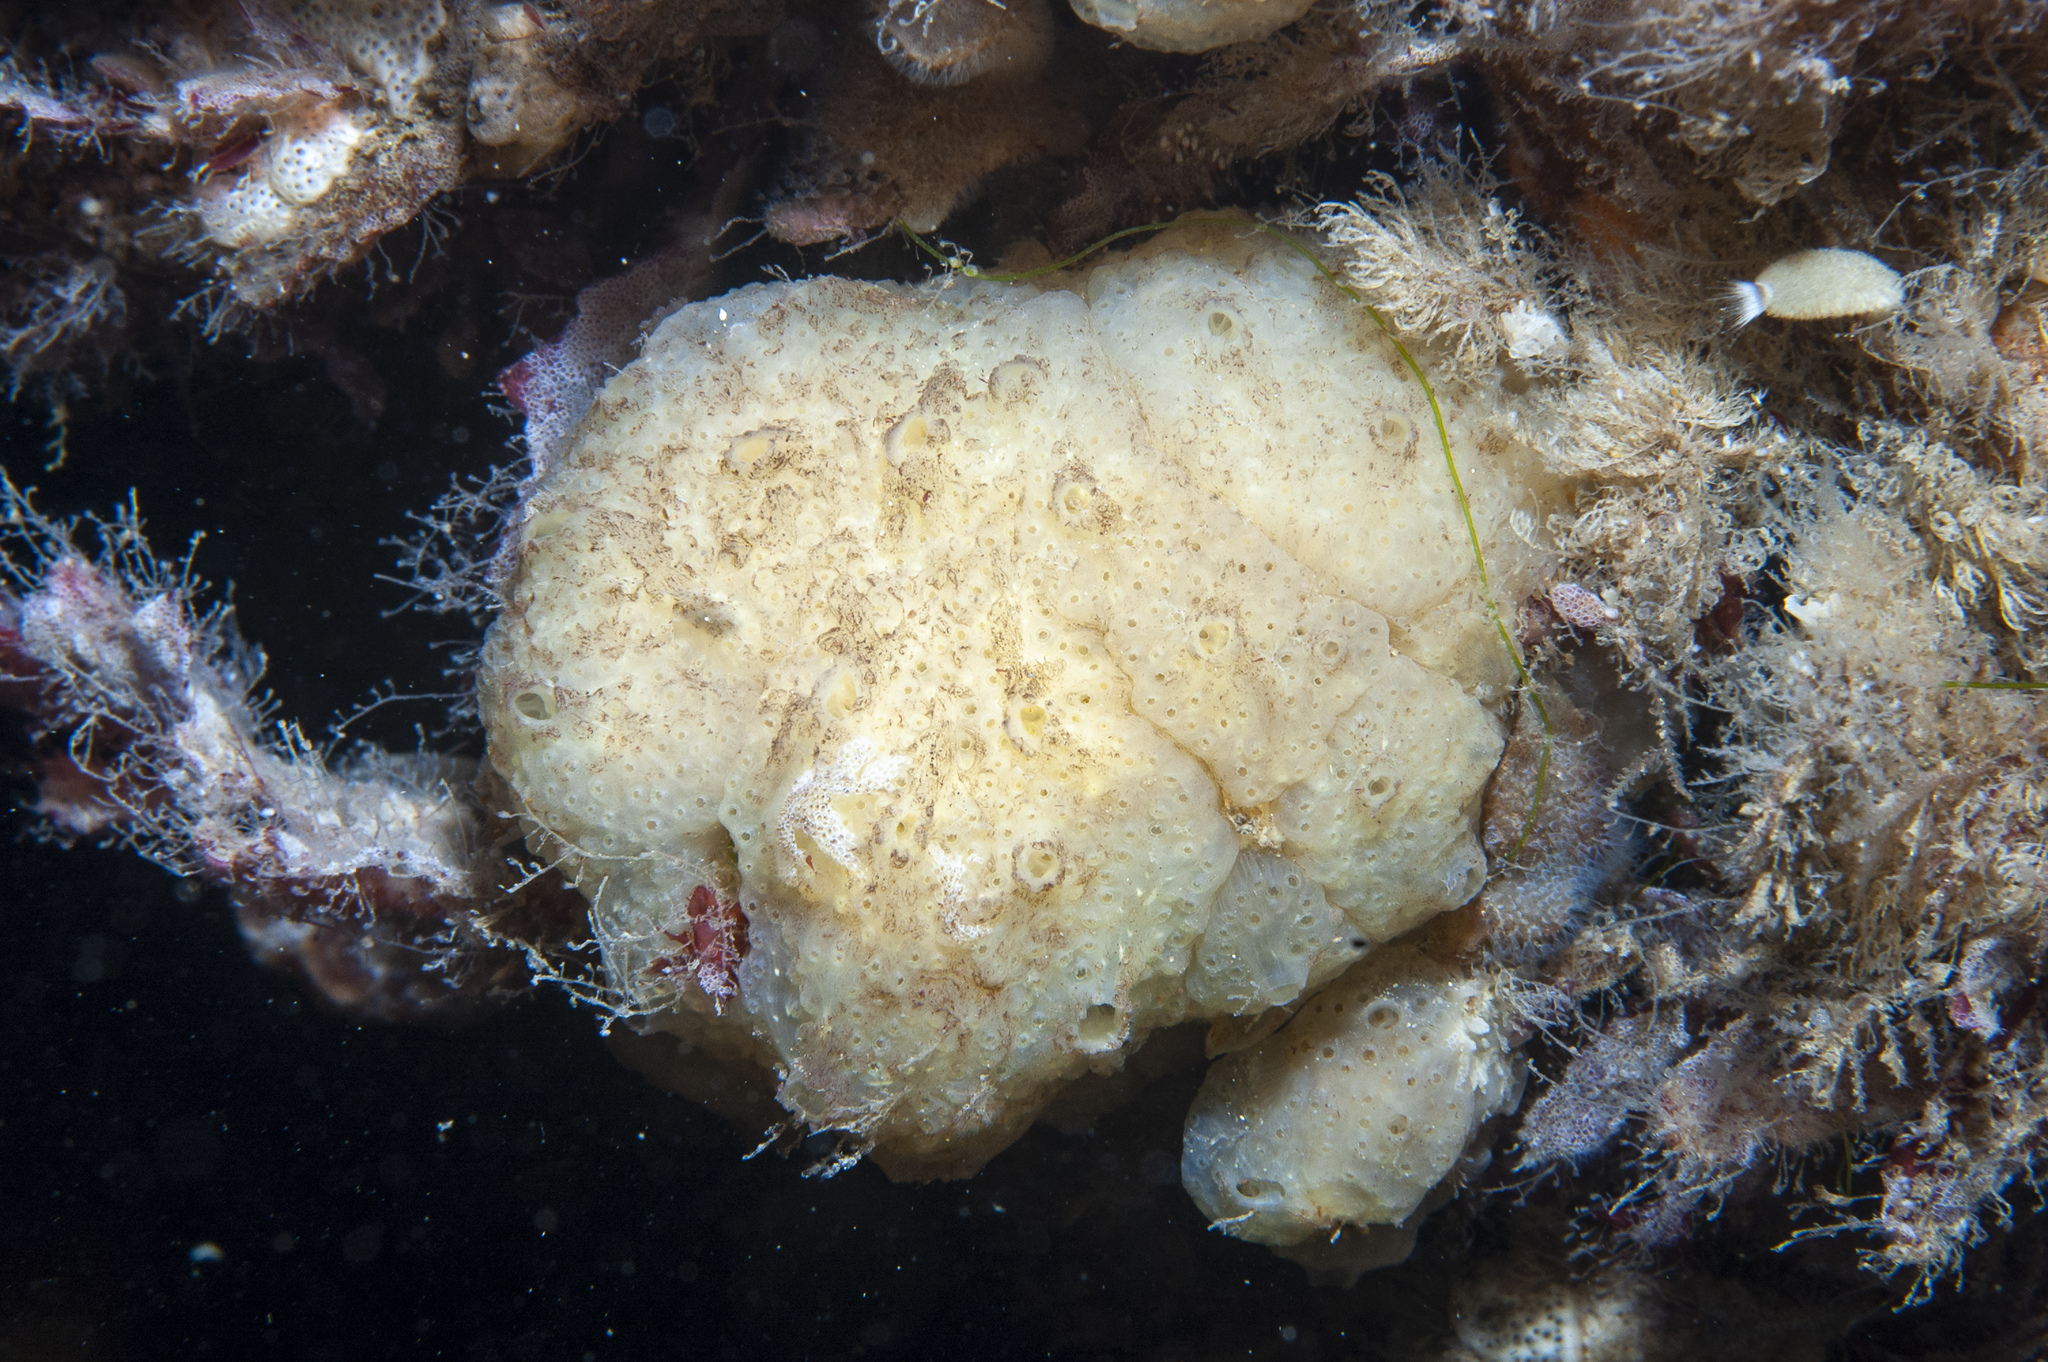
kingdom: Animalia
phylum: Chordata
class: Ascidiacea
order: Aplousobranchia
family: Polyclinidae
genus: Polyclinum
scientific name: Polyclinum aurantium
